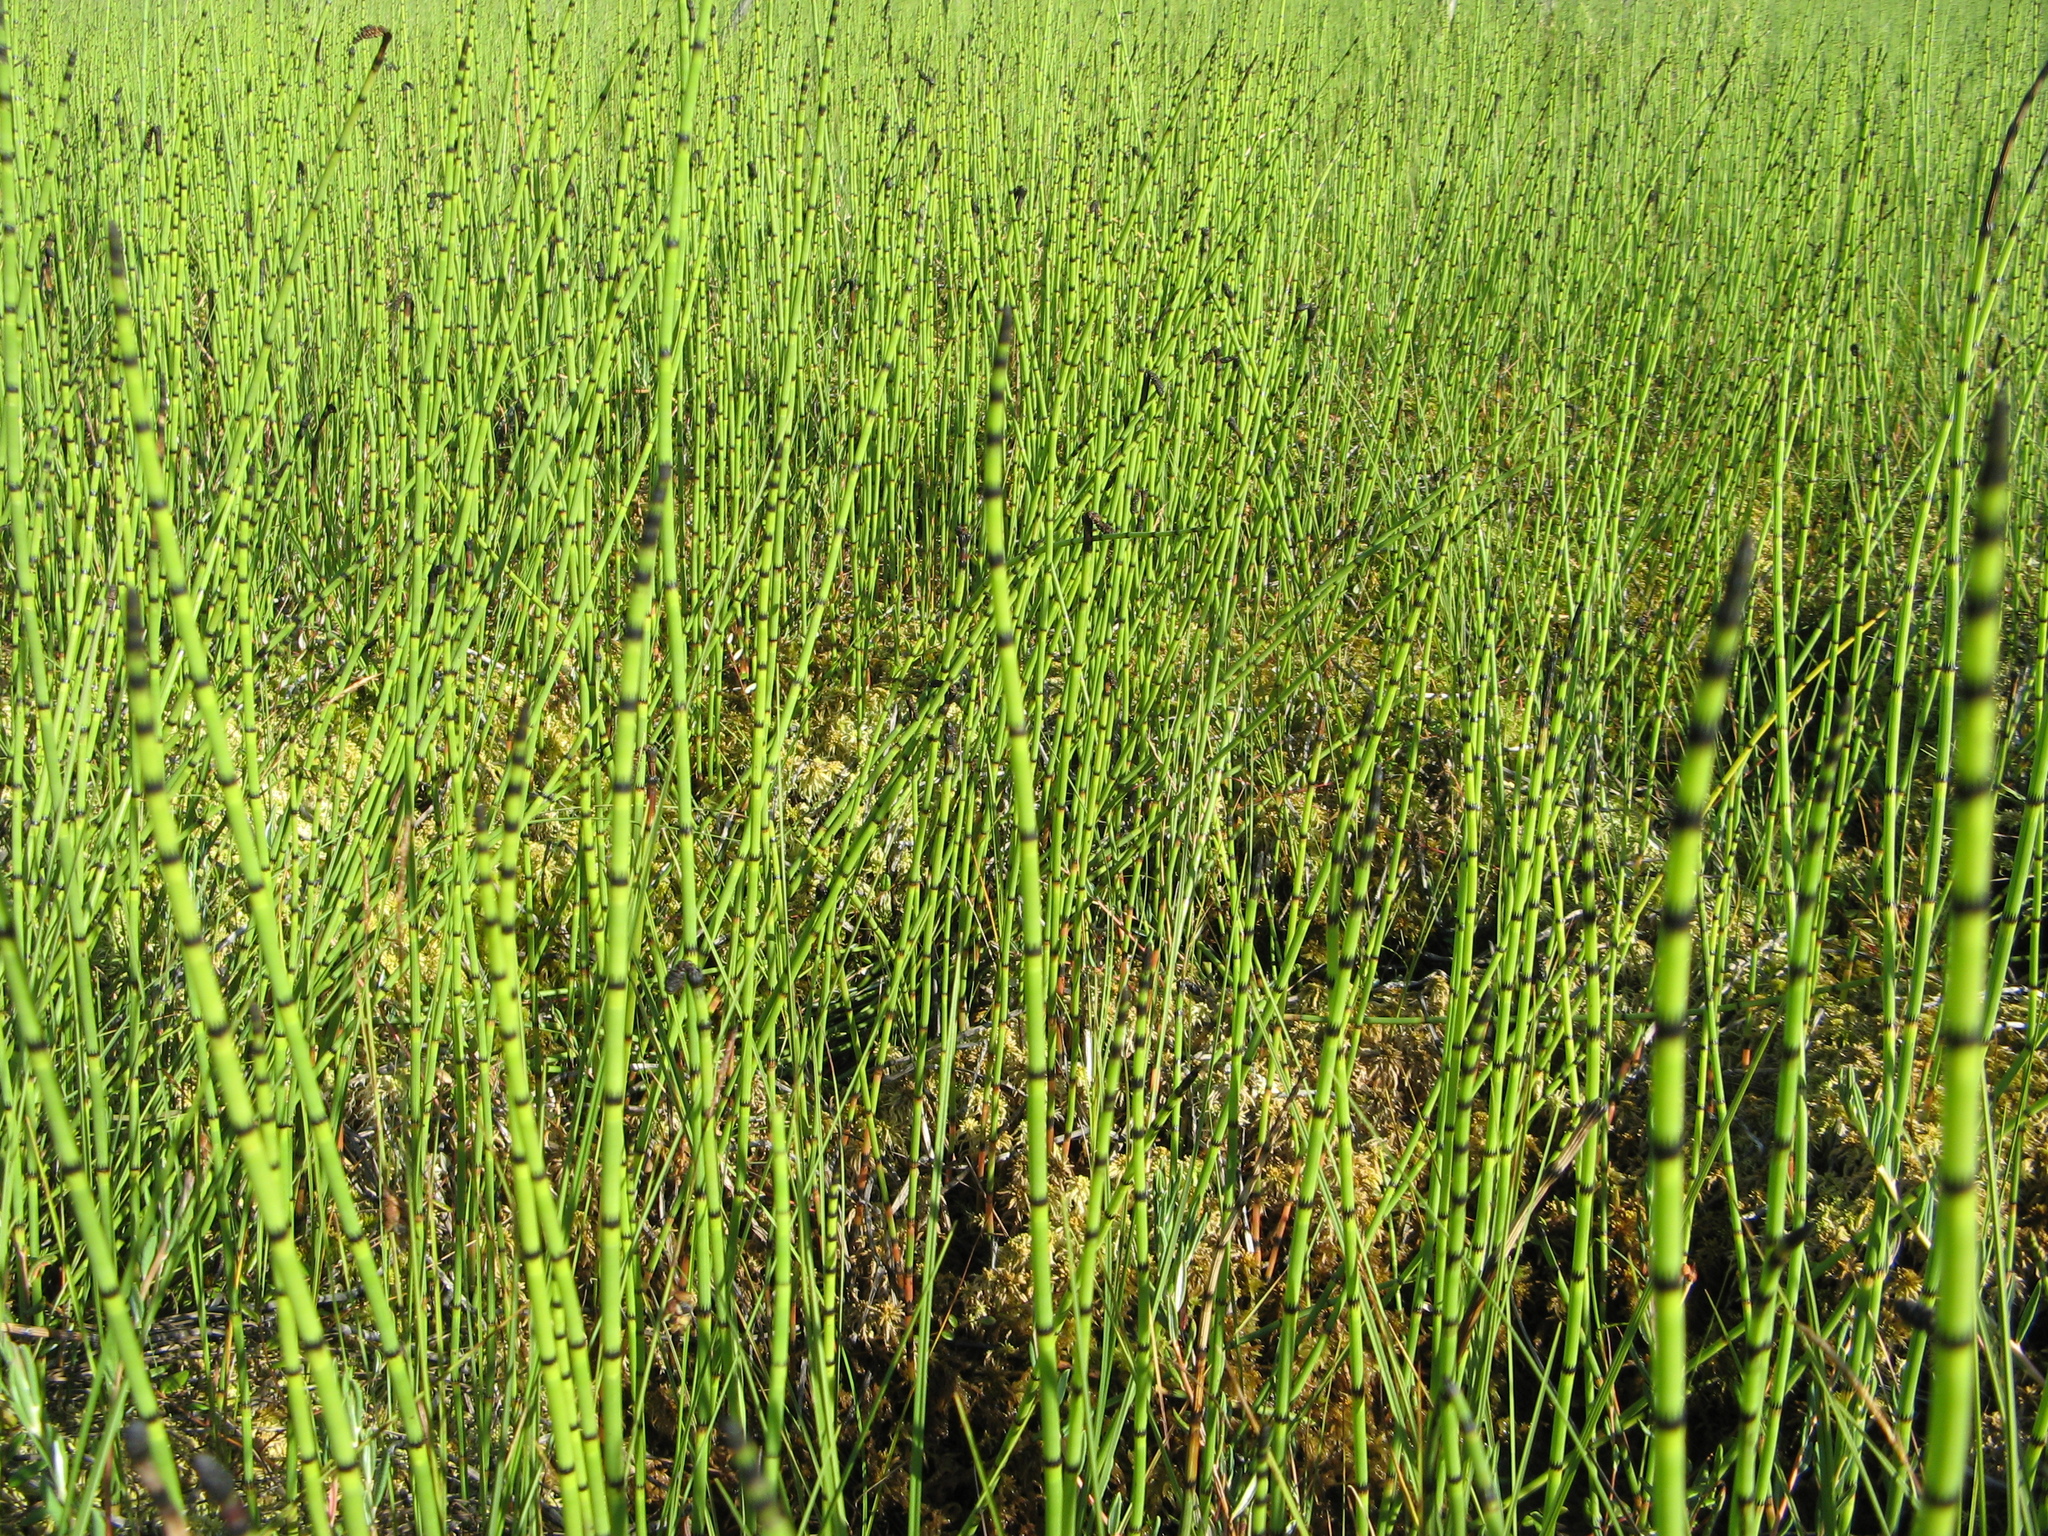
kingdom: Plantae
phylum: Tracheophyta
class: Polypodiopsida
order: Equisetales
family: Equisetaceae
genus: Equisetum
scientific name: Equisetum fluviatile
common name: Water horsetail
